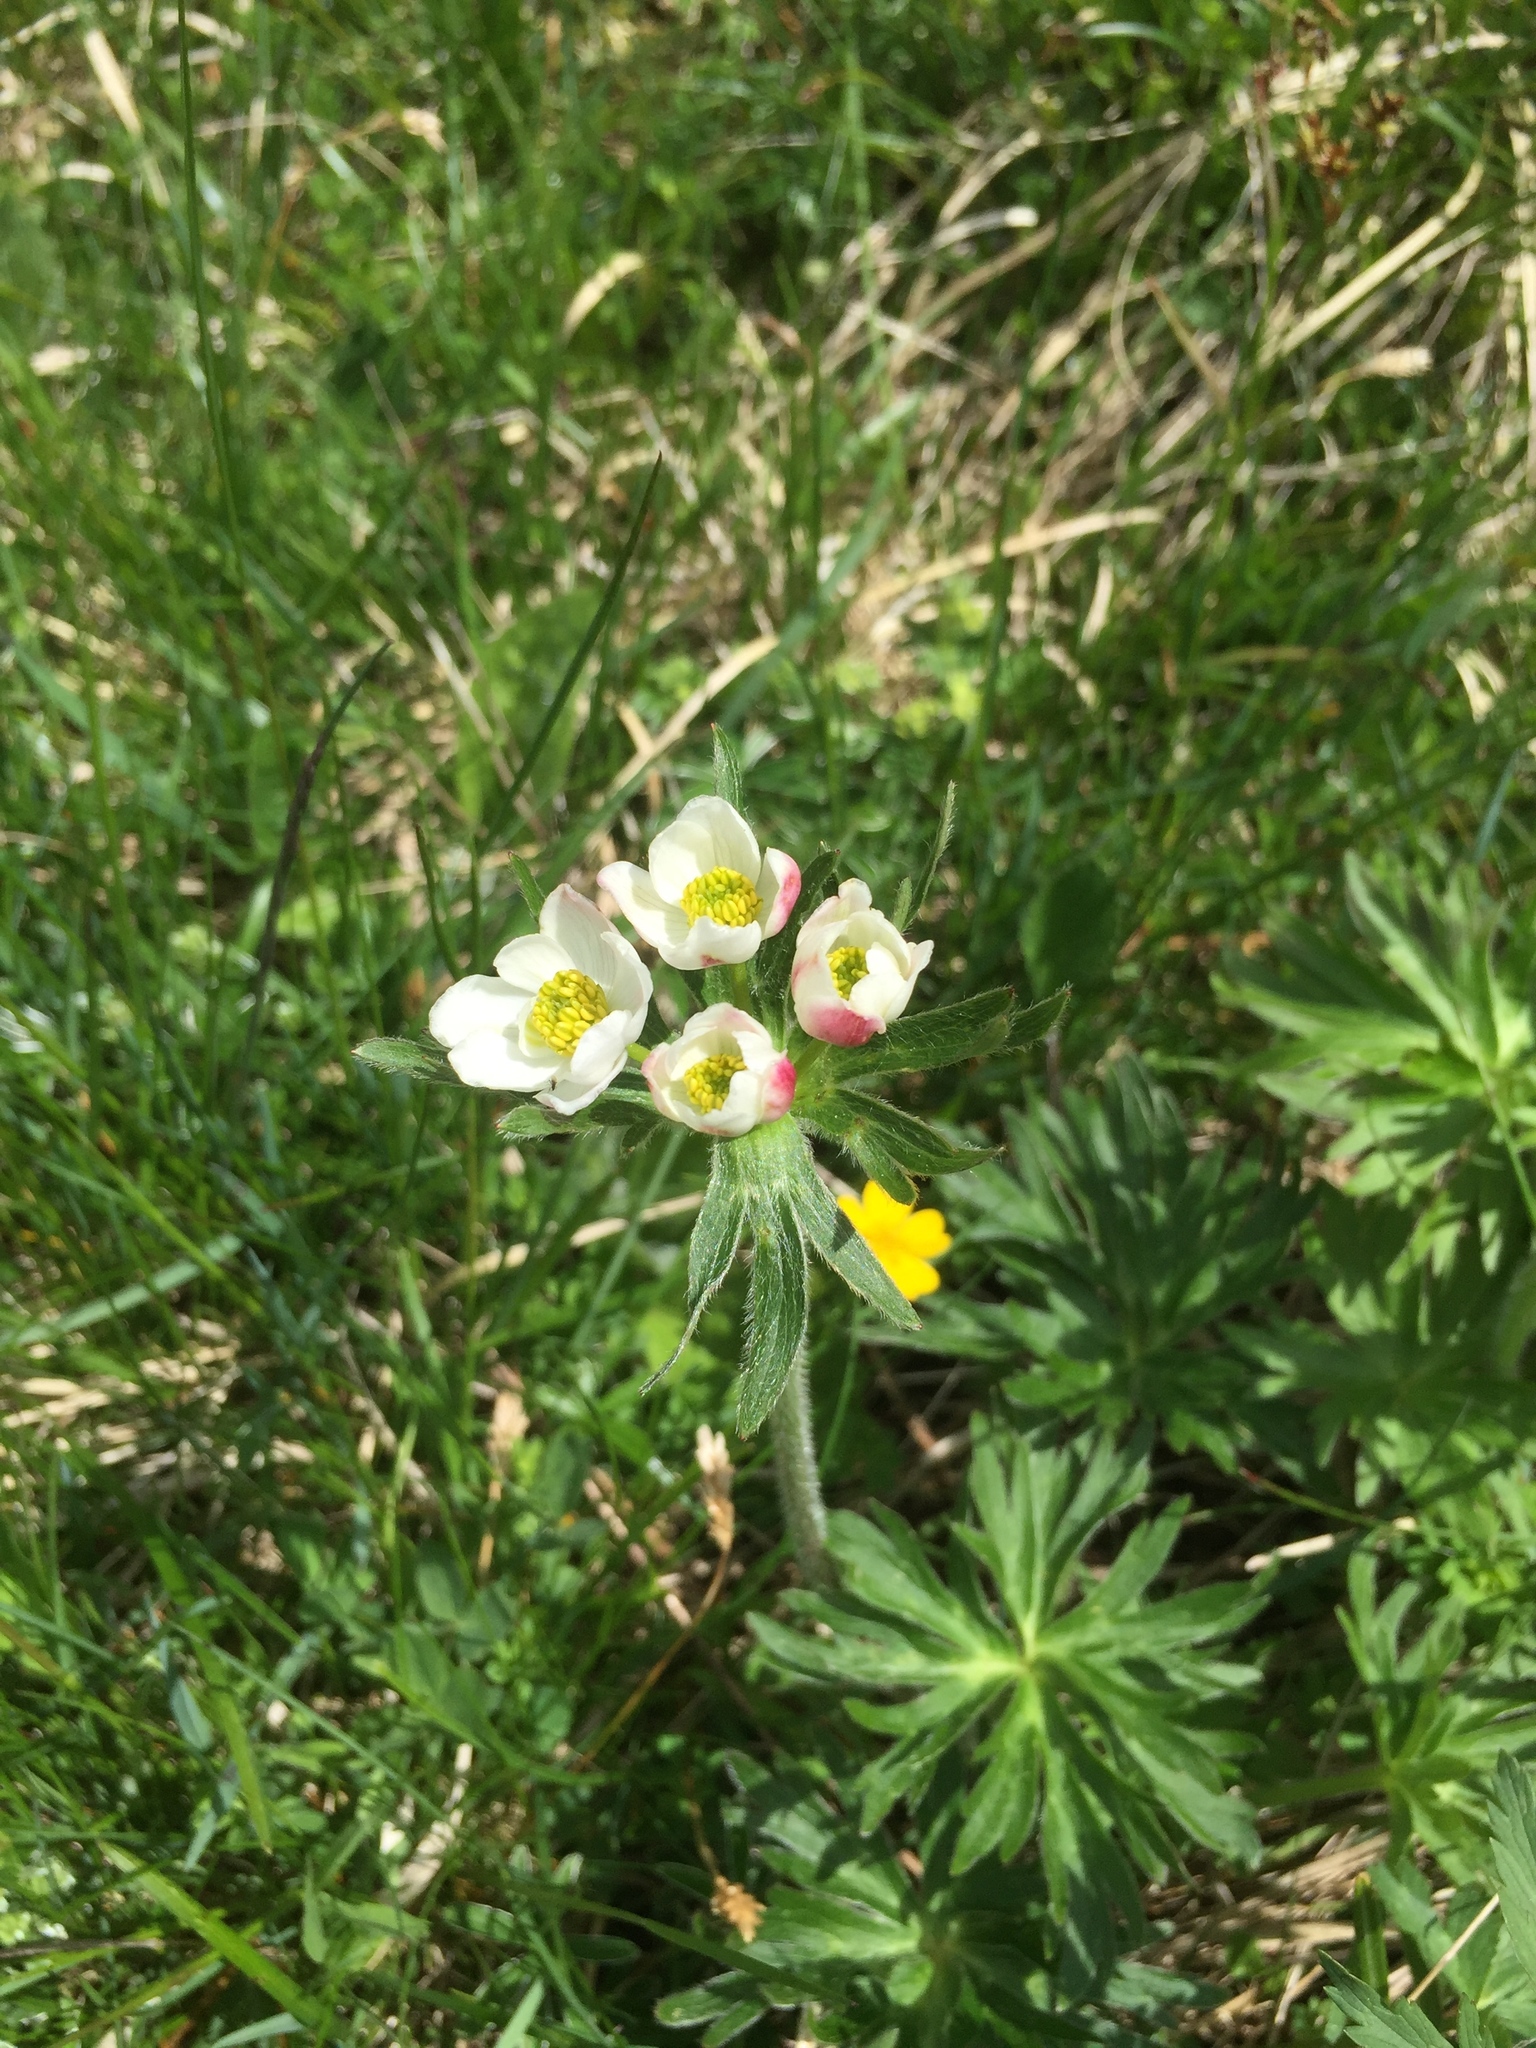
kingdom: Plantae
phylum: Tracheophyta
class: Magnoliopsida
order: Ranunculales
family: Ranunculaceae
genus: Anemonastrum
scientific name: Anemonastrum narcissiflorum
